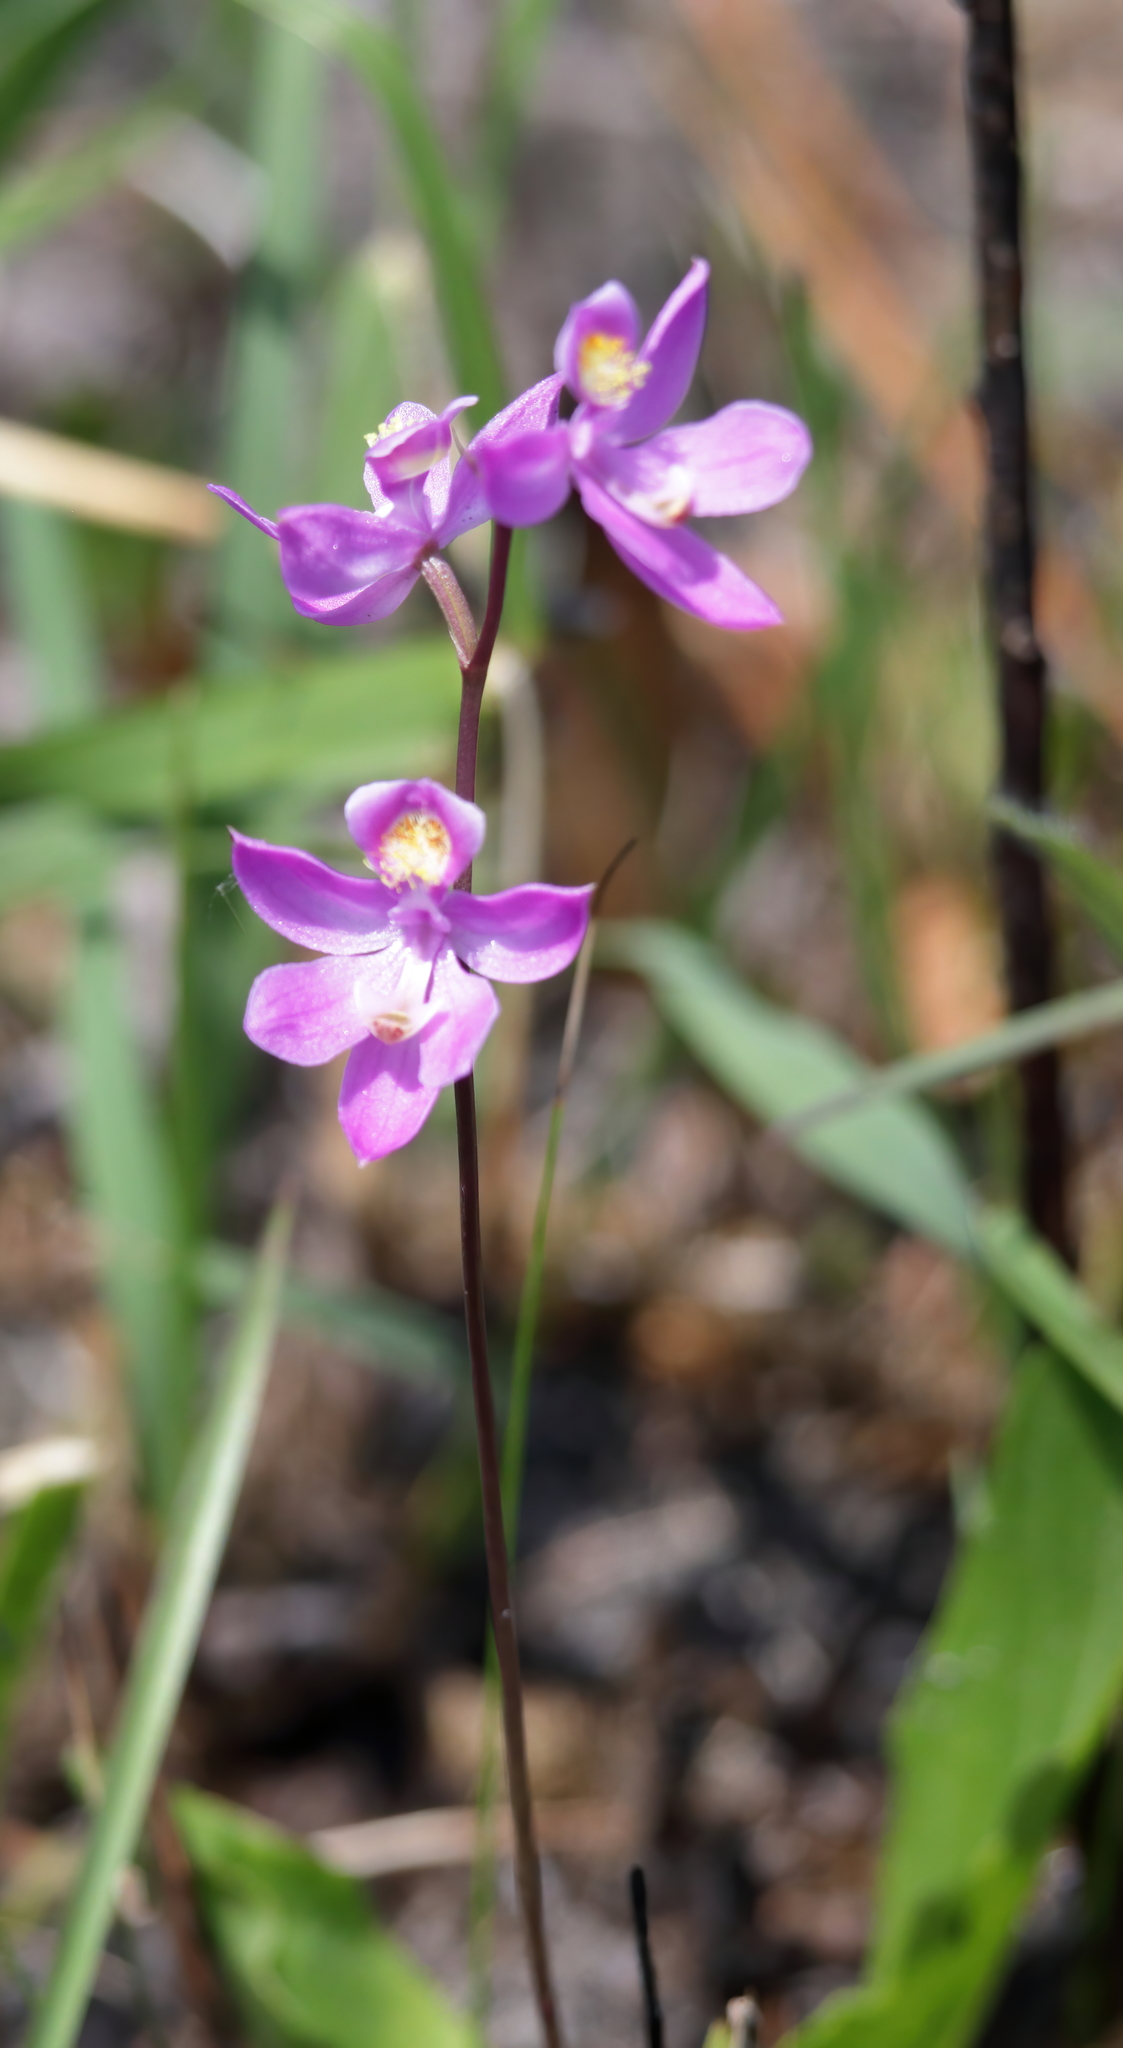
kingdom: Plantae
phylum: Tracheophyta
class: Liliopsida
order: Asparagales
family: Orchidaceae
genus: Calopogon
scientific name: Calopogon multiflorus
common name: Many-flowered grass-pink orchid
